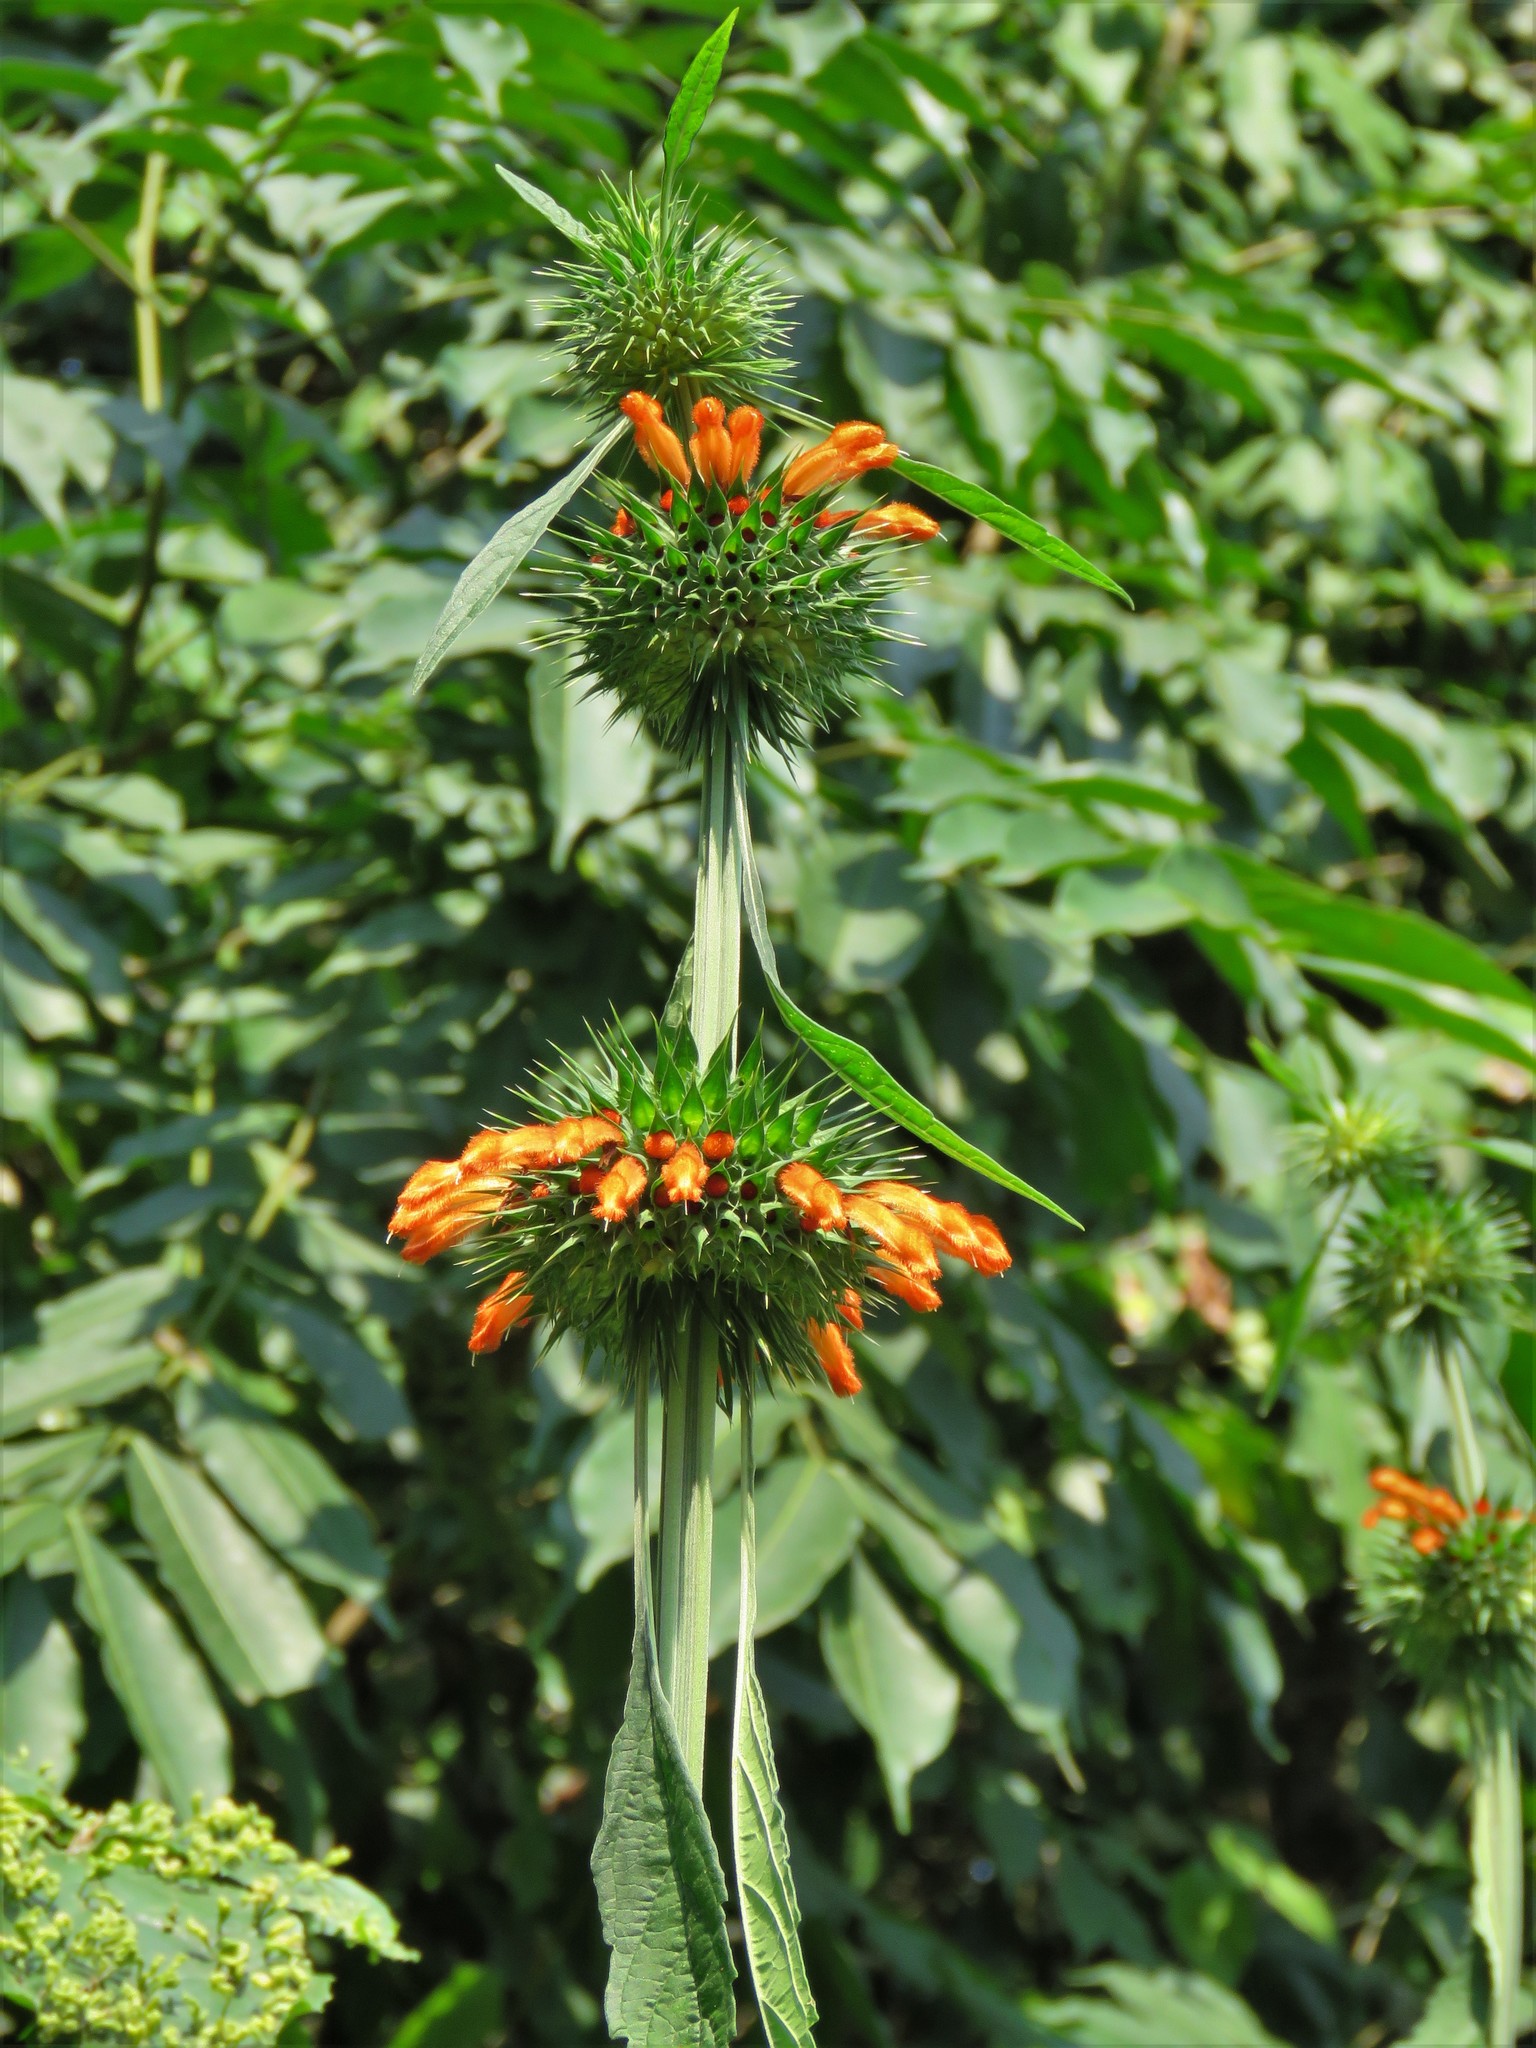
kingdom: Plantae
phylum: Tracheophyta
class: Magnoliopsida
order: Lamiales
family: Lamiaceae
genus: Leonotis
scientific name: Leonotis nepetifolia
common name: Christmas candlestick
